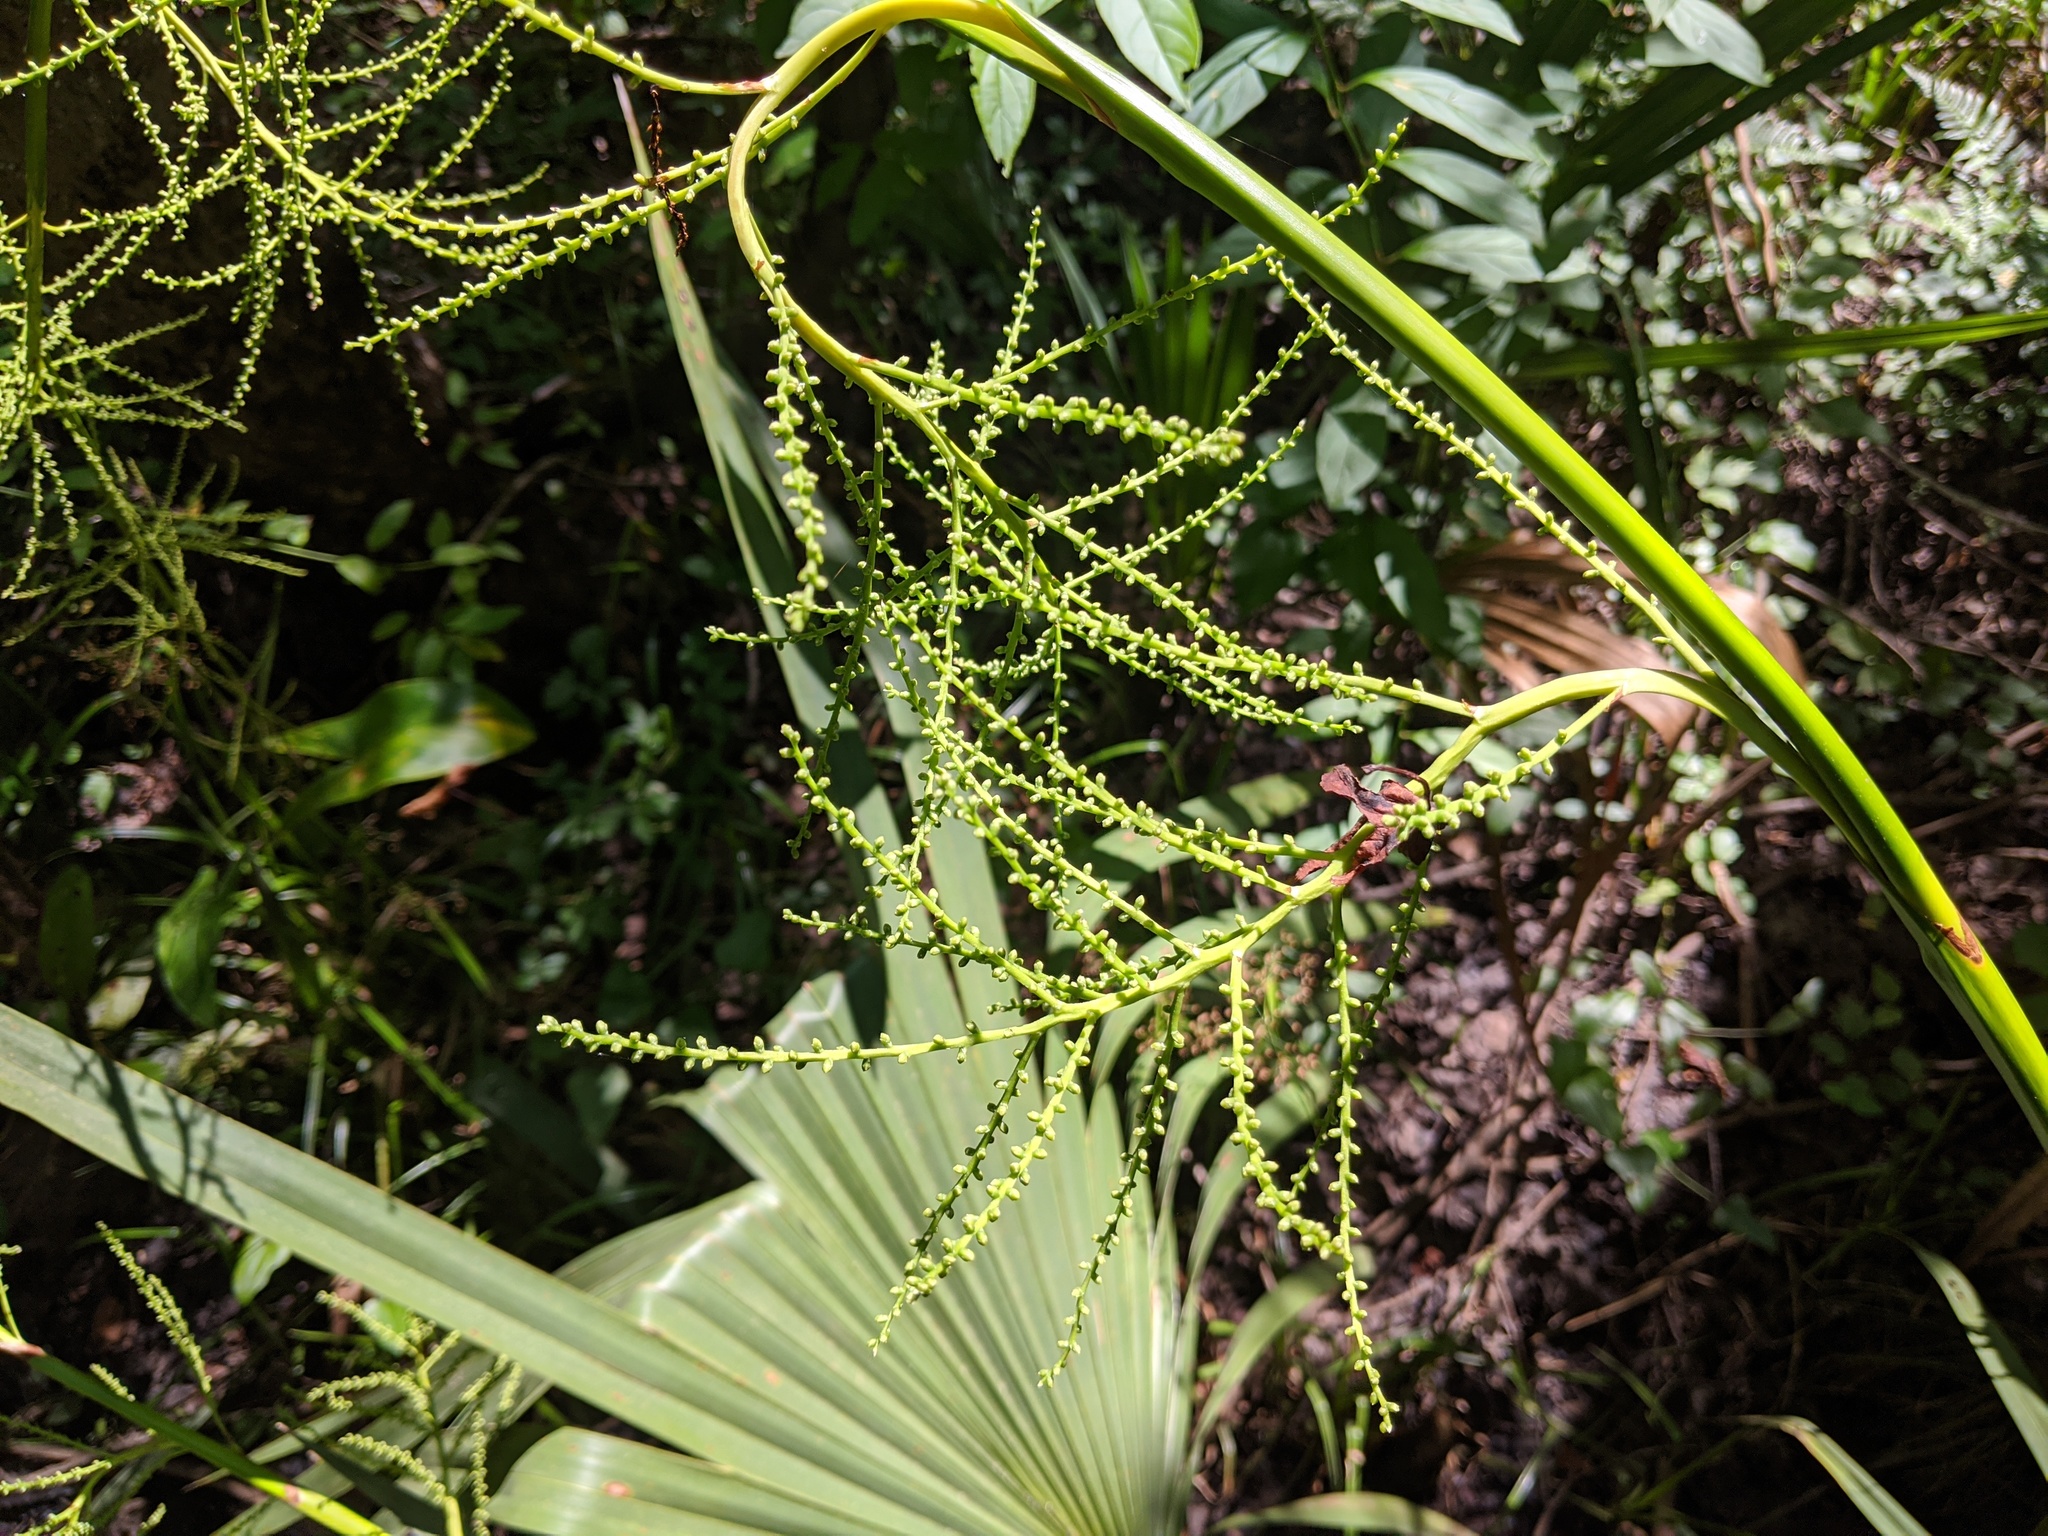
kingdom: Plantae
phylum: Tracheophyta
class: Liliopsida
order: Arecales
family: Arecaceae
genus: Sabal
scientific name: Sabal minor
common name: Dwarf palmetto
